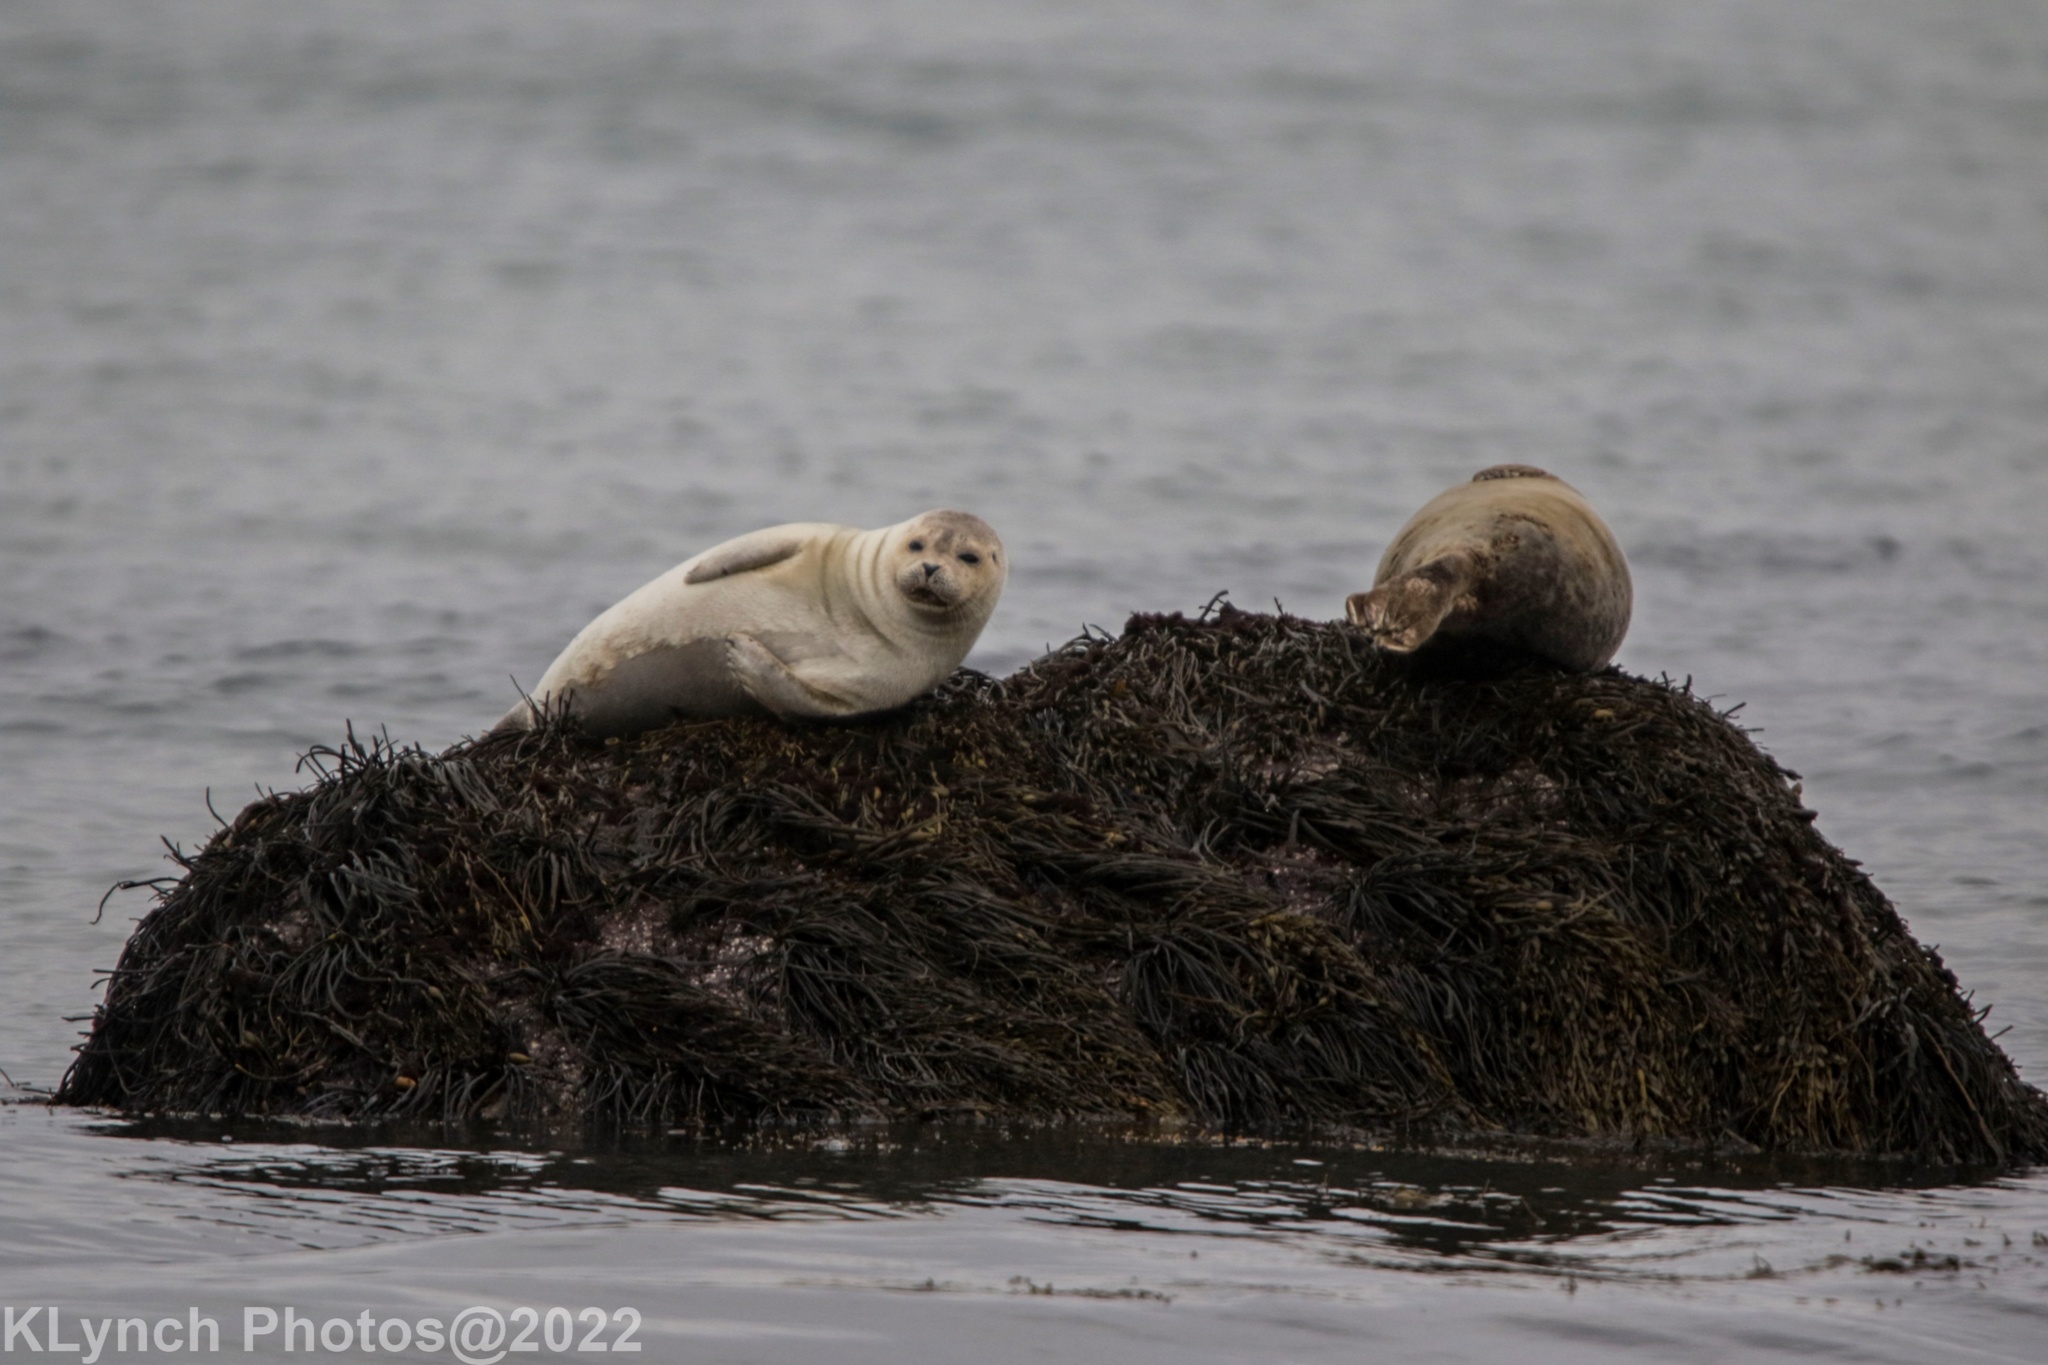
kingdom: Animalia
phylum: Chordata
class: Mammalia
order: Carnivora
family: Phocidae
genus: Phoca
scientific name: Phoca vitulina
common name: Harbor seal
